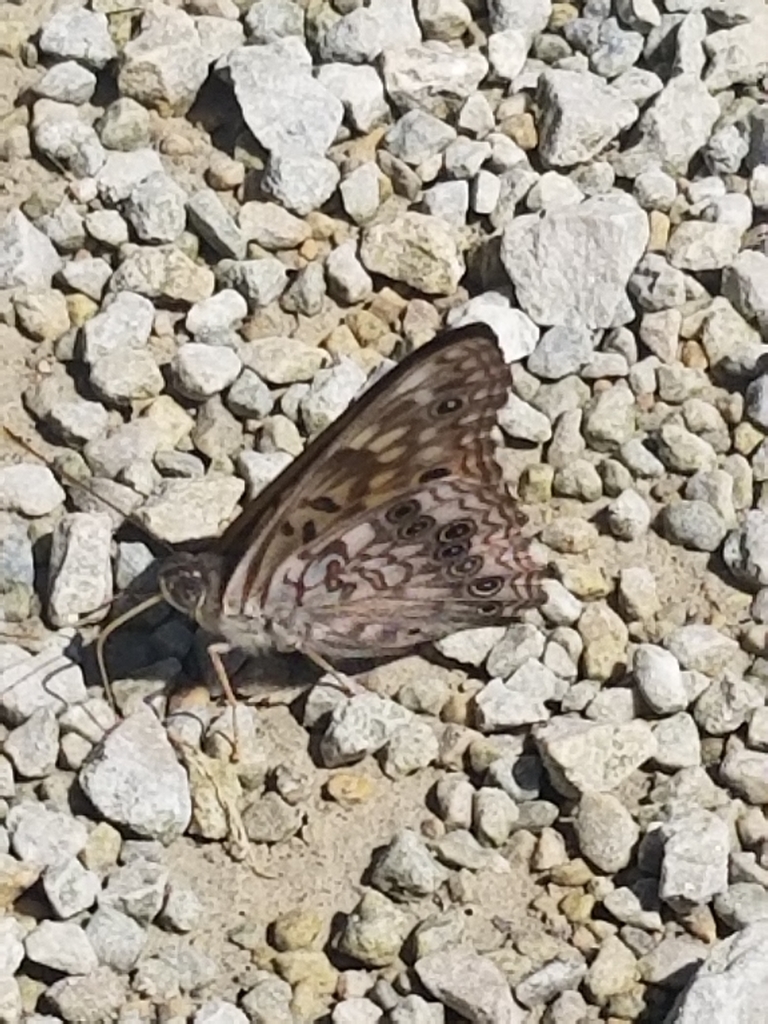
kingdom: Animalia
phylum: Arthropoda
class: Insecta
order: Lepidoptera
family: Nymphalidae
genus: Asterocampa
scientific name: Asterocampa celtis
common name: Hackberry emperor
